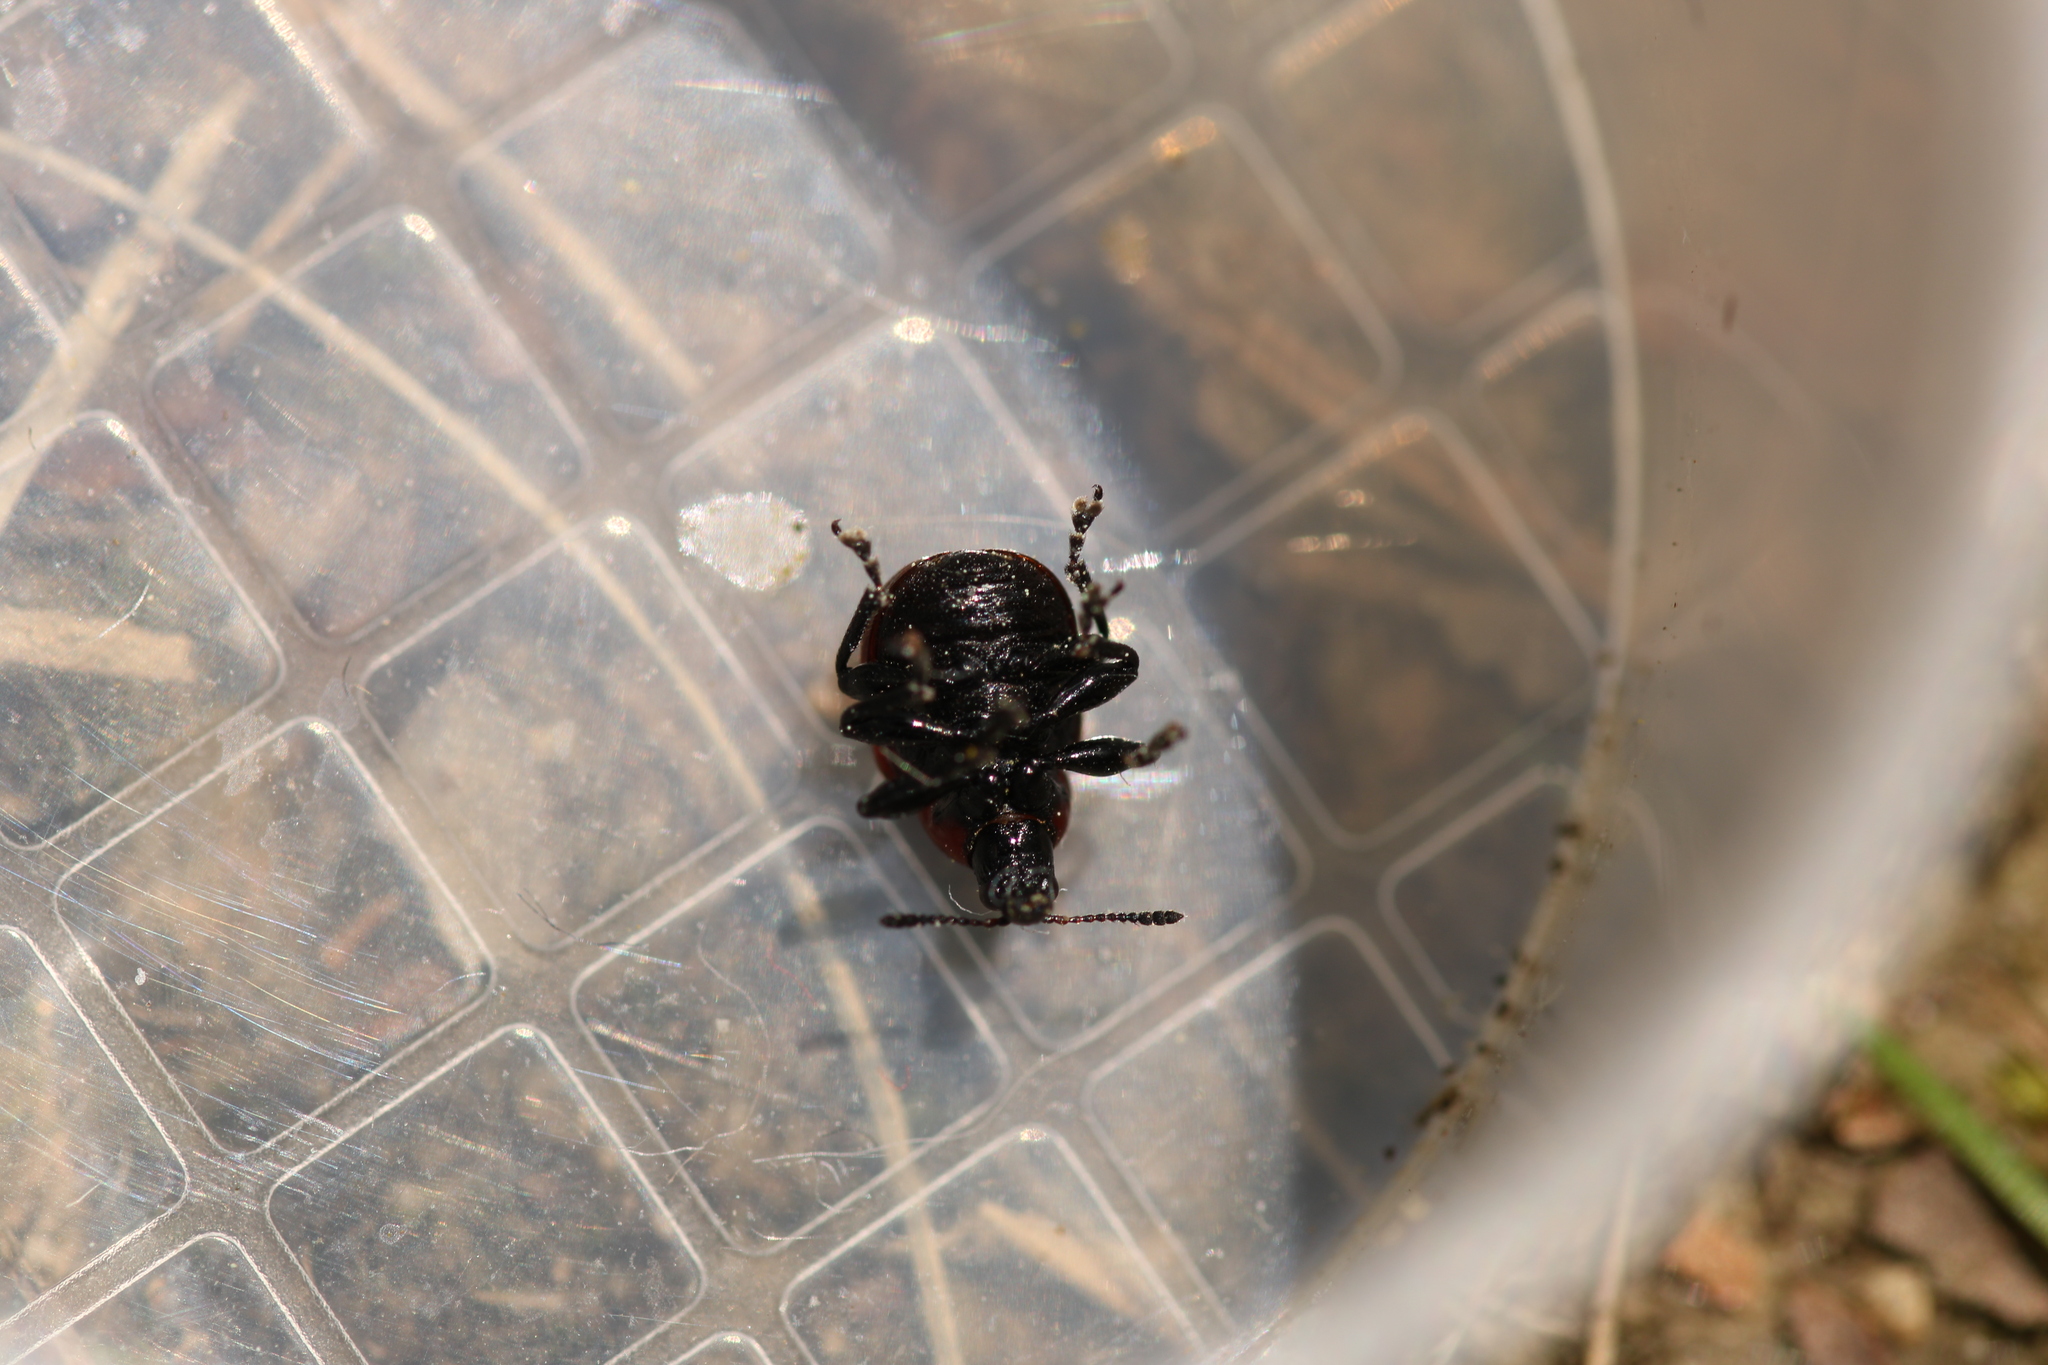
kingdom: Animalia
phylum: Arthropoda
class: Insecta
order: Coleoptera
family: Attelabidae
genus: Attelabus
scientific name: Attelabus nitens
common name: Oak leaf-roller
